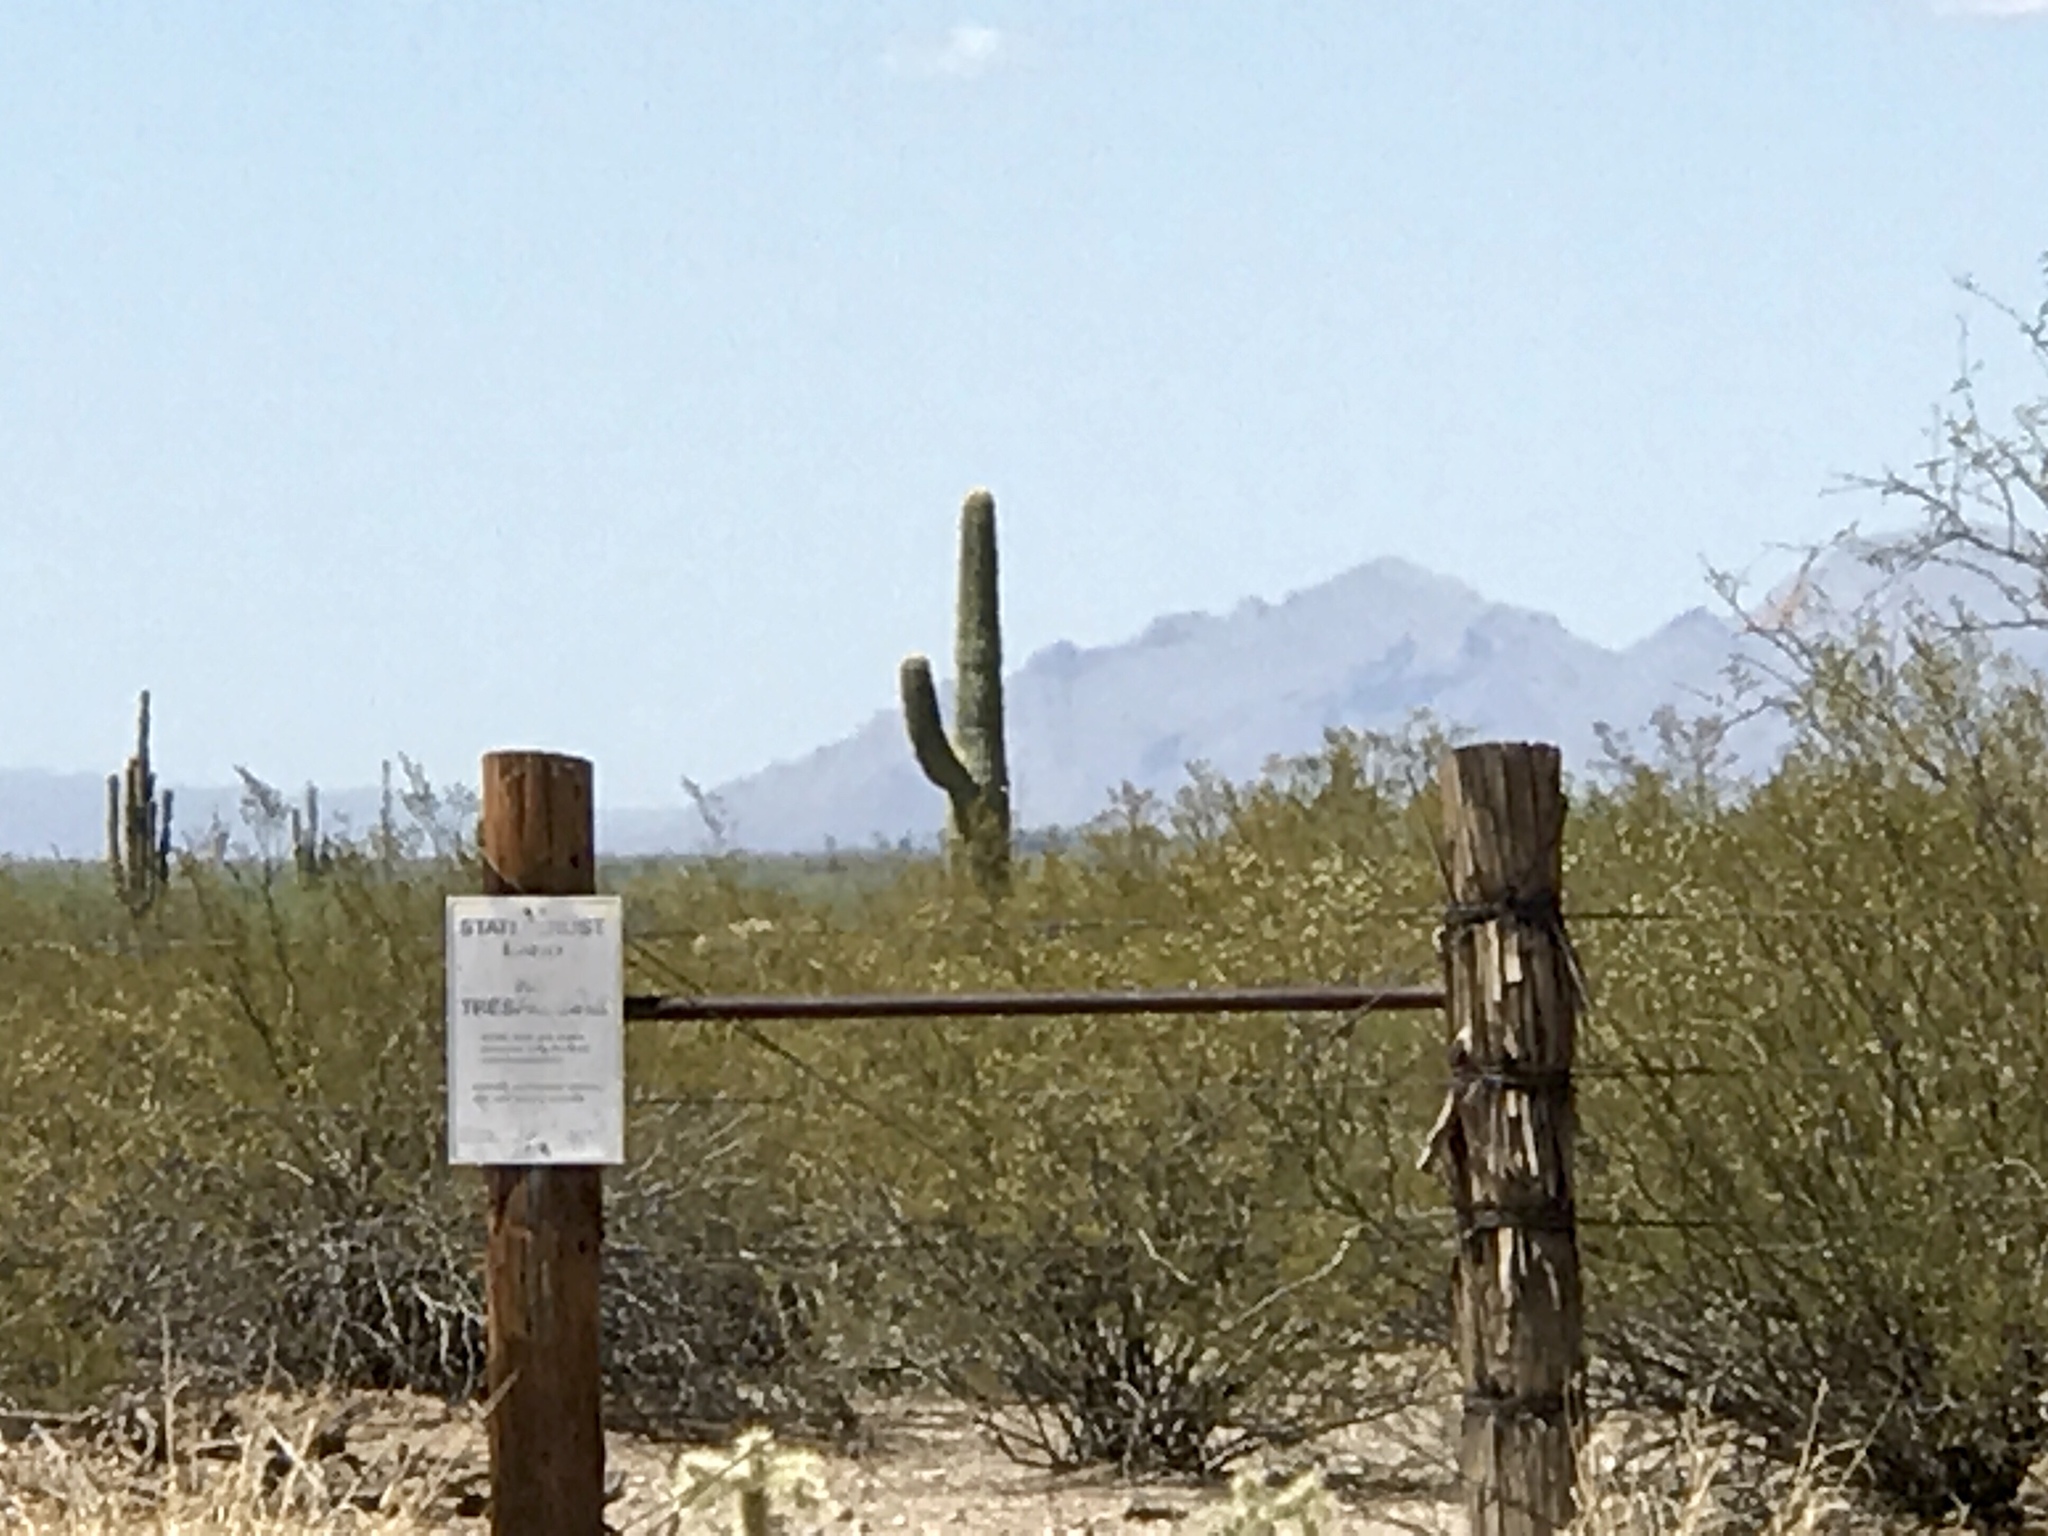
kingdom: Plantae
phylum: Tracheophyta
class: Magnoliopsida
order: Caryophyllales
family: Cactaceae
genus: Carnegiea
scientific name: Carnegiea gigantea
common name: Saguaro
